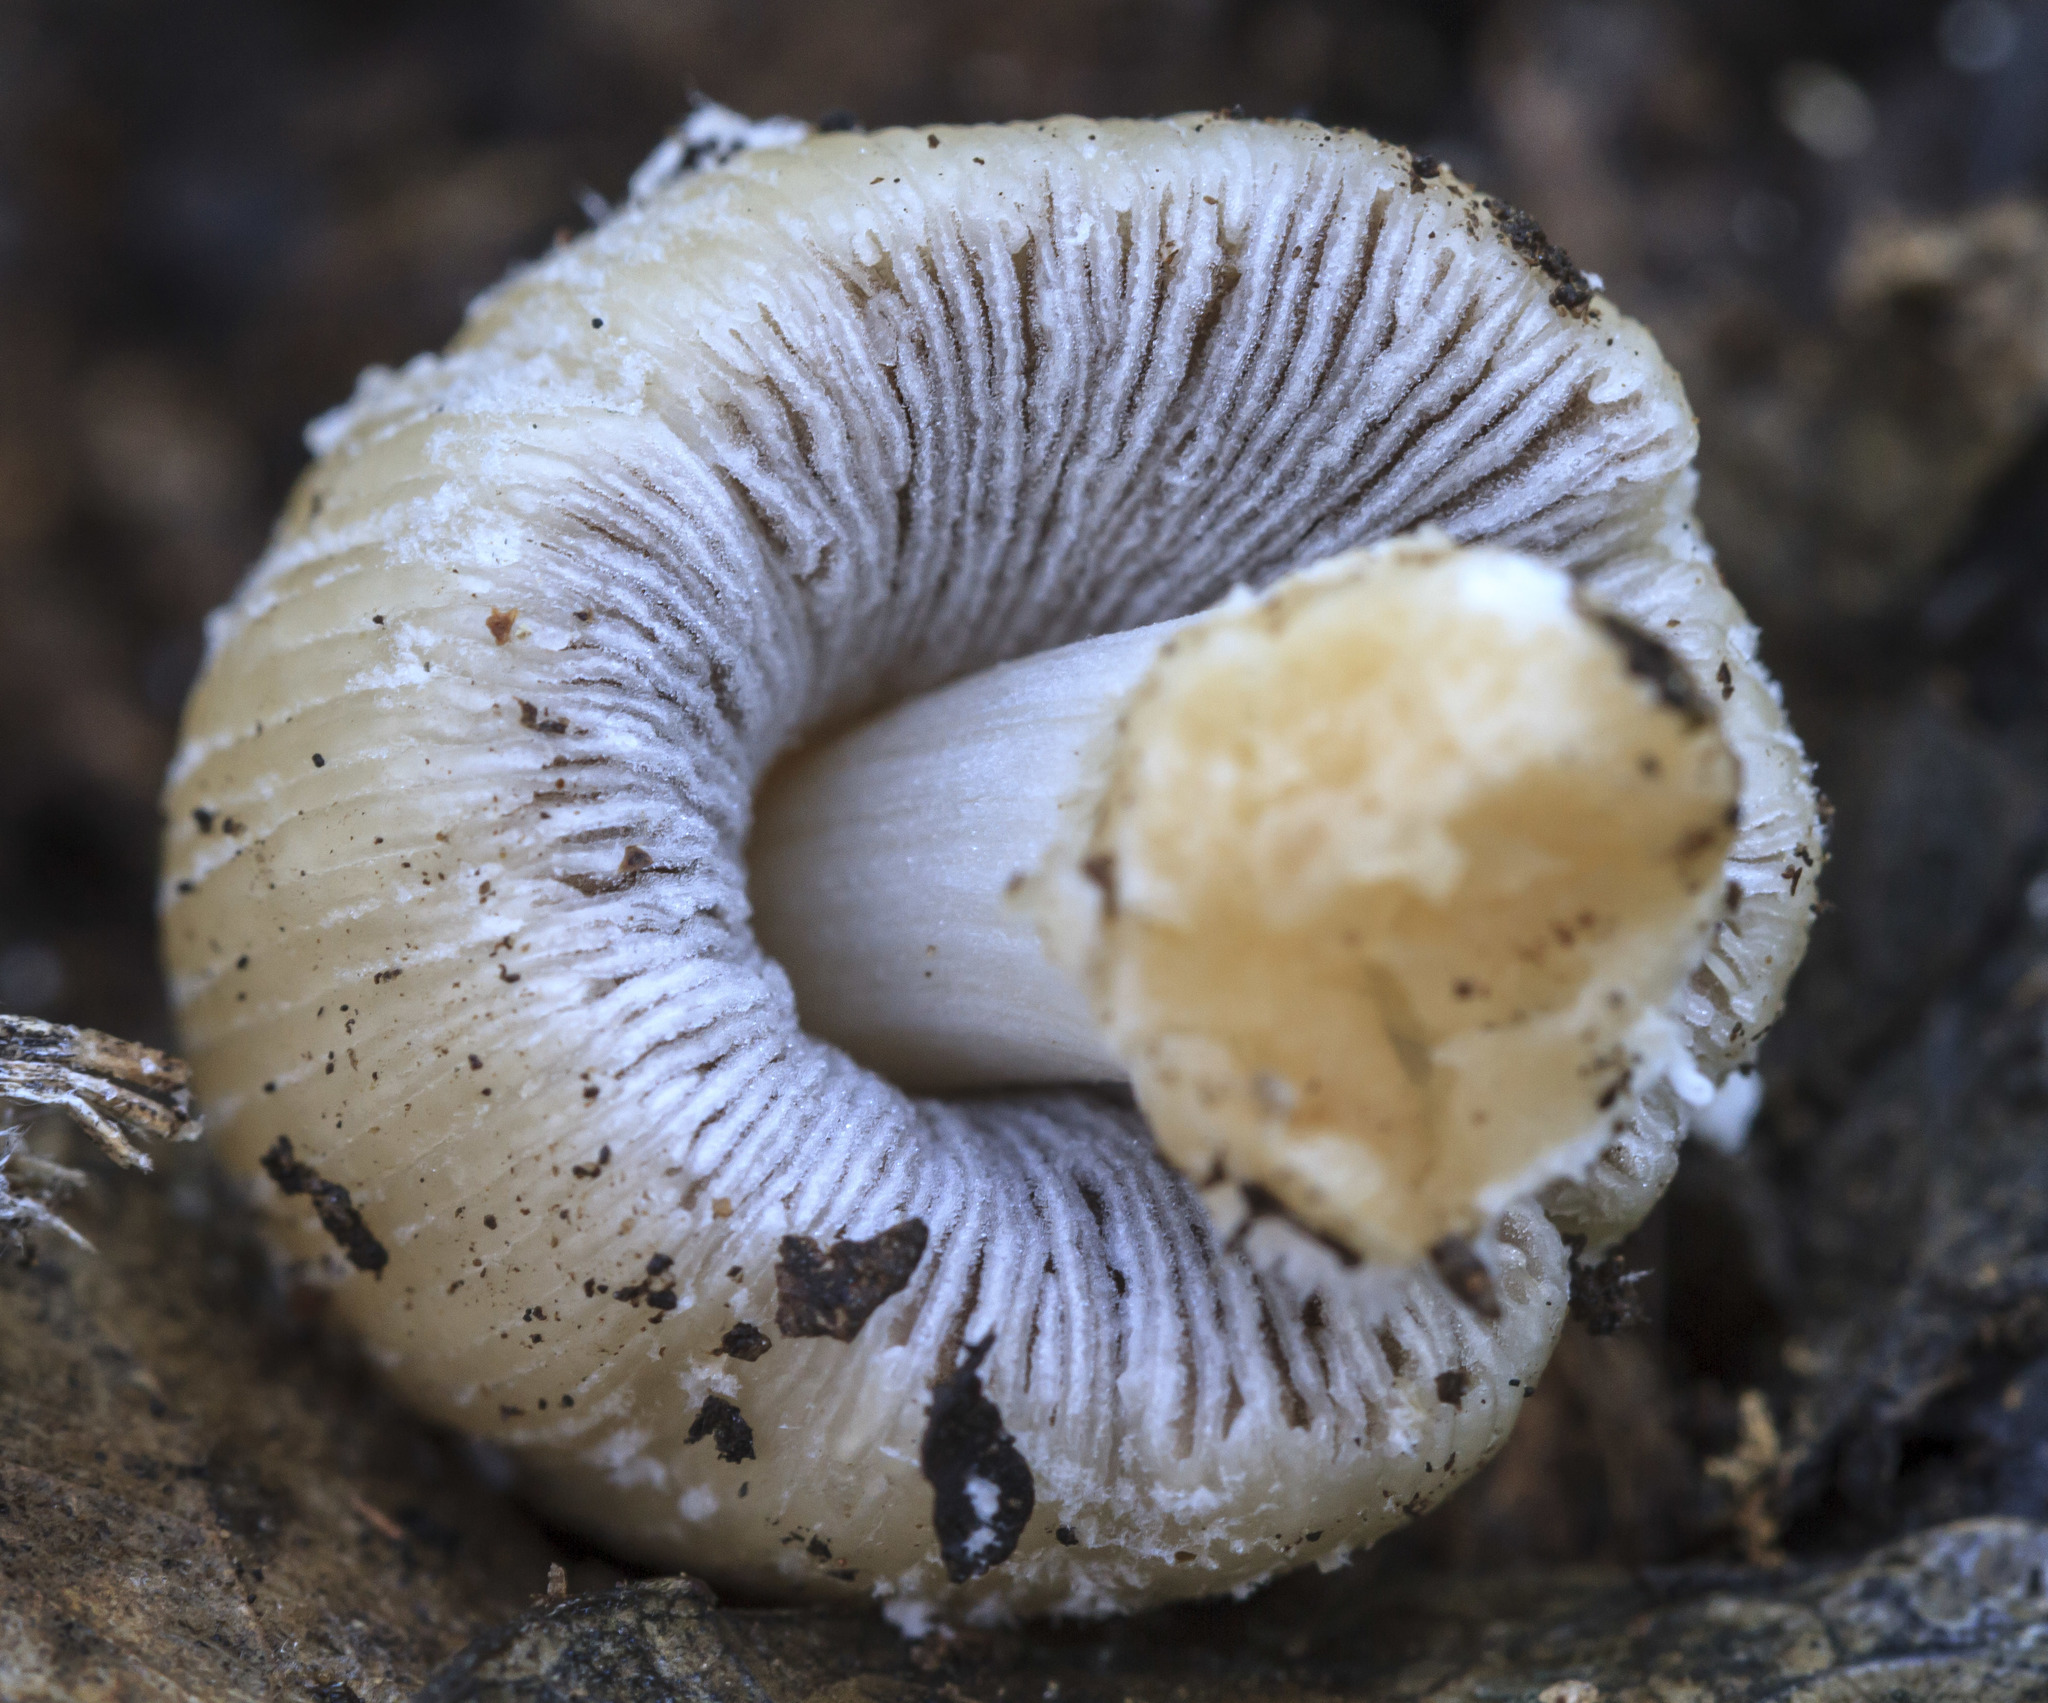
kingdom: Fungi
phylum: Basidiomycota
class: Agaricomycetes
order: Agaricales
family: Psathyrellaceae
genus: Coprinellus
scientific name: Coprinellus flocculosus
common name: Flocculose inkcap
